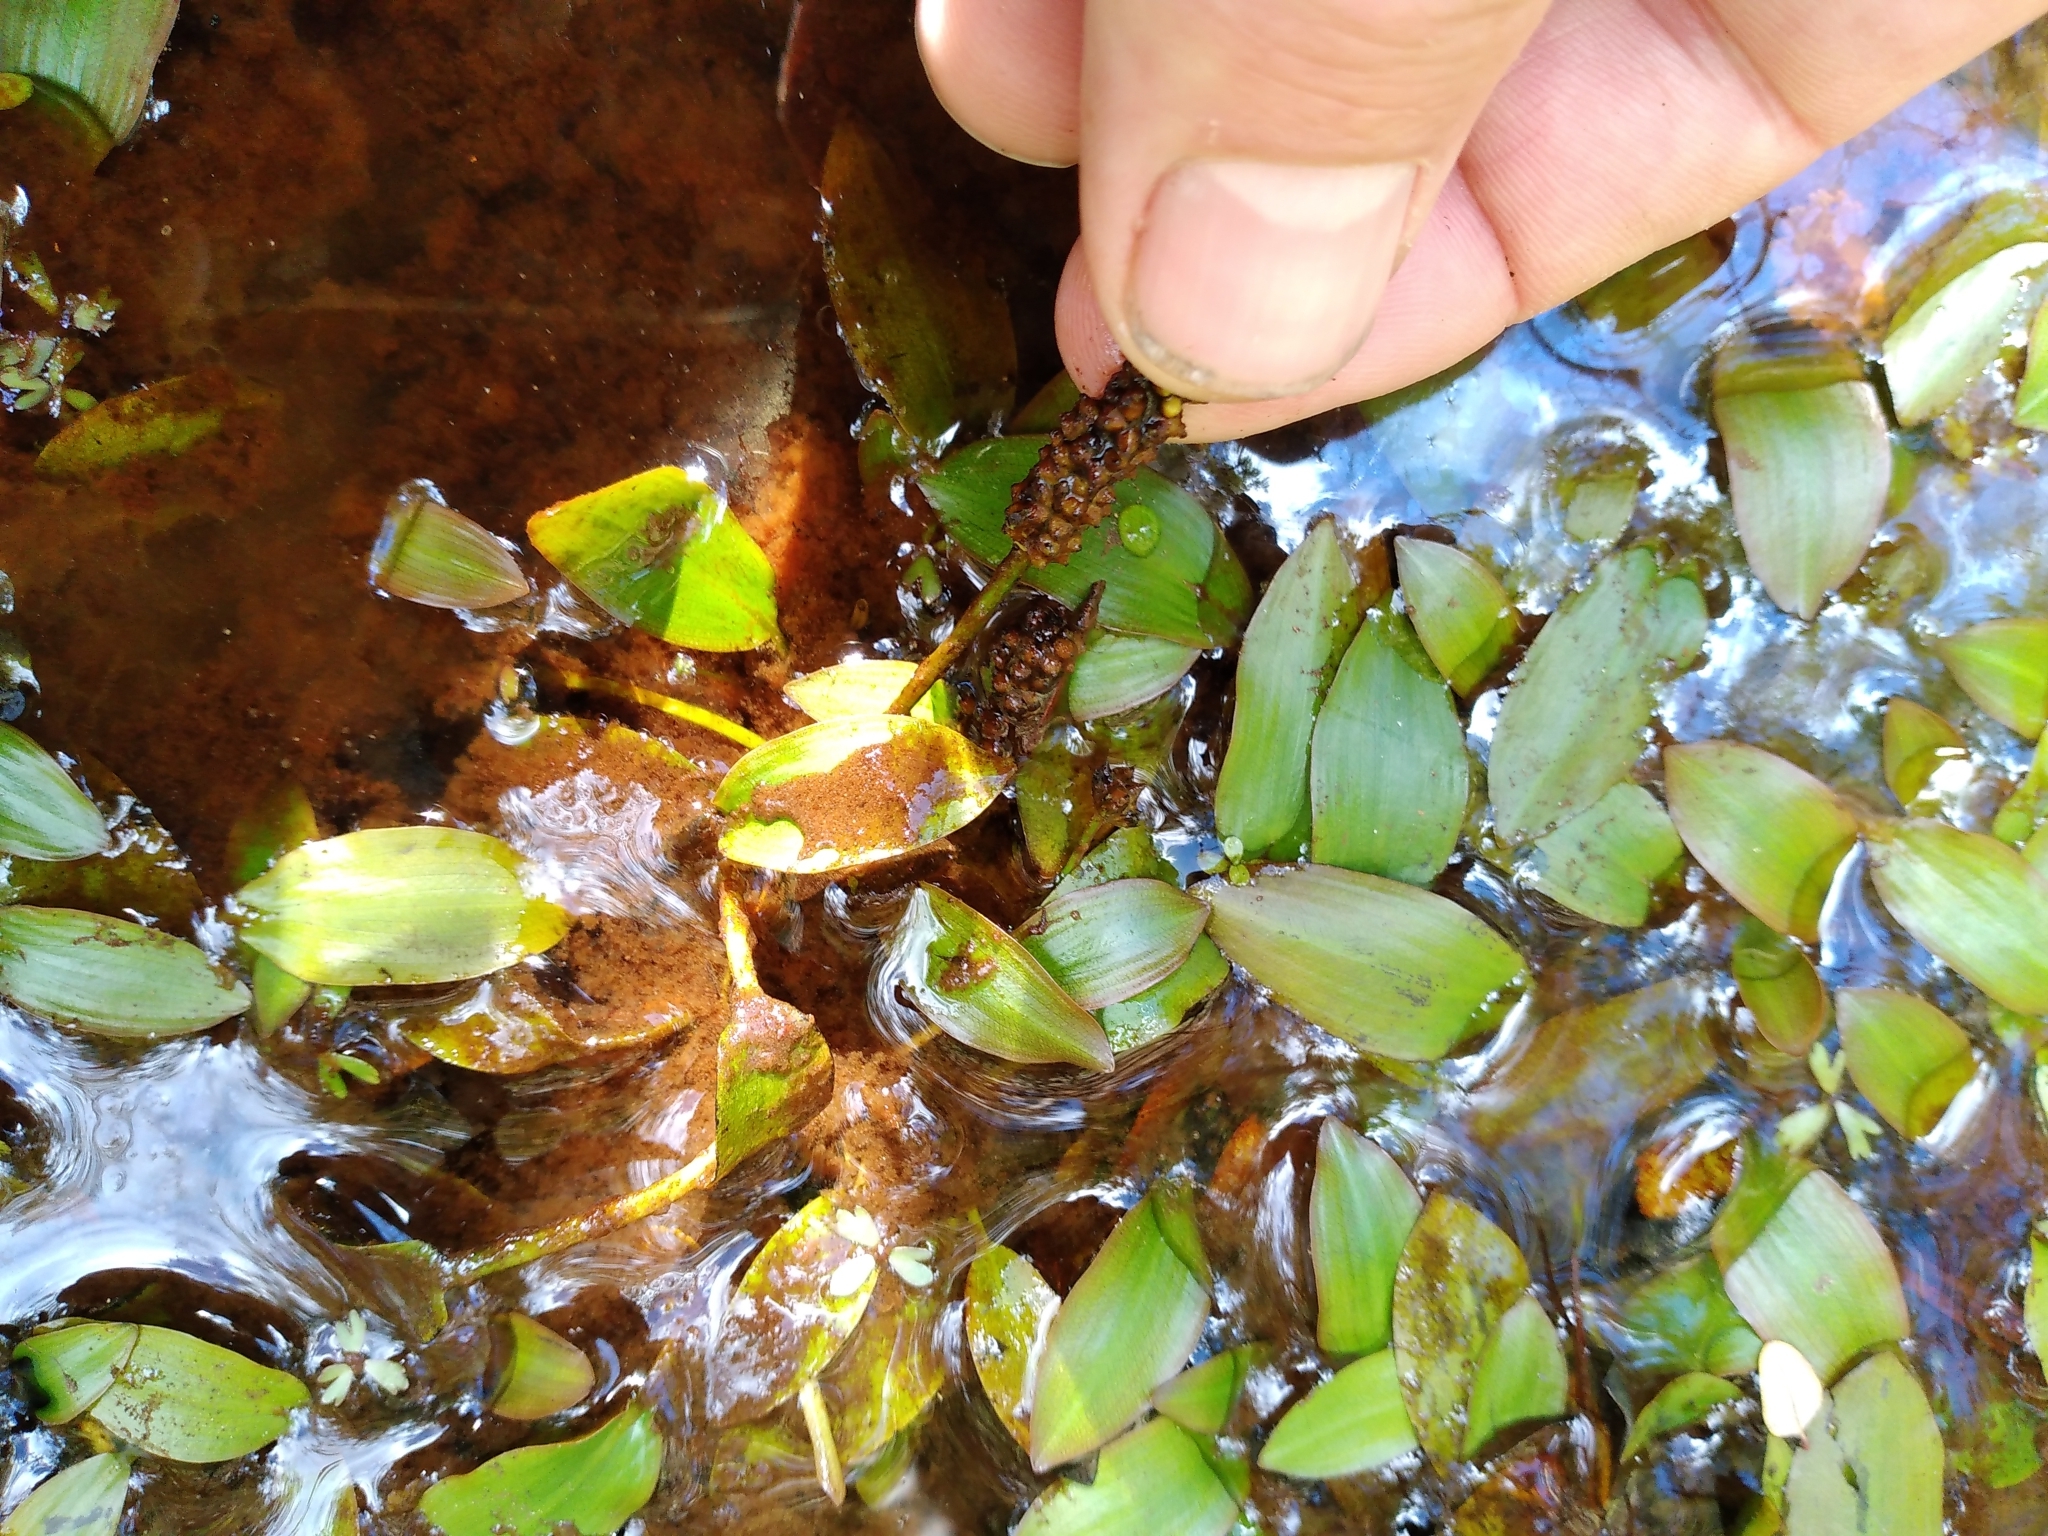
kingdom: Plantae
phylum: Tracheophyta
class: Liliopsida
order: Alismatales
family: Potamogetonaceae
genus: Potamogeton
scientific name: Potamogeton cheesemanii
